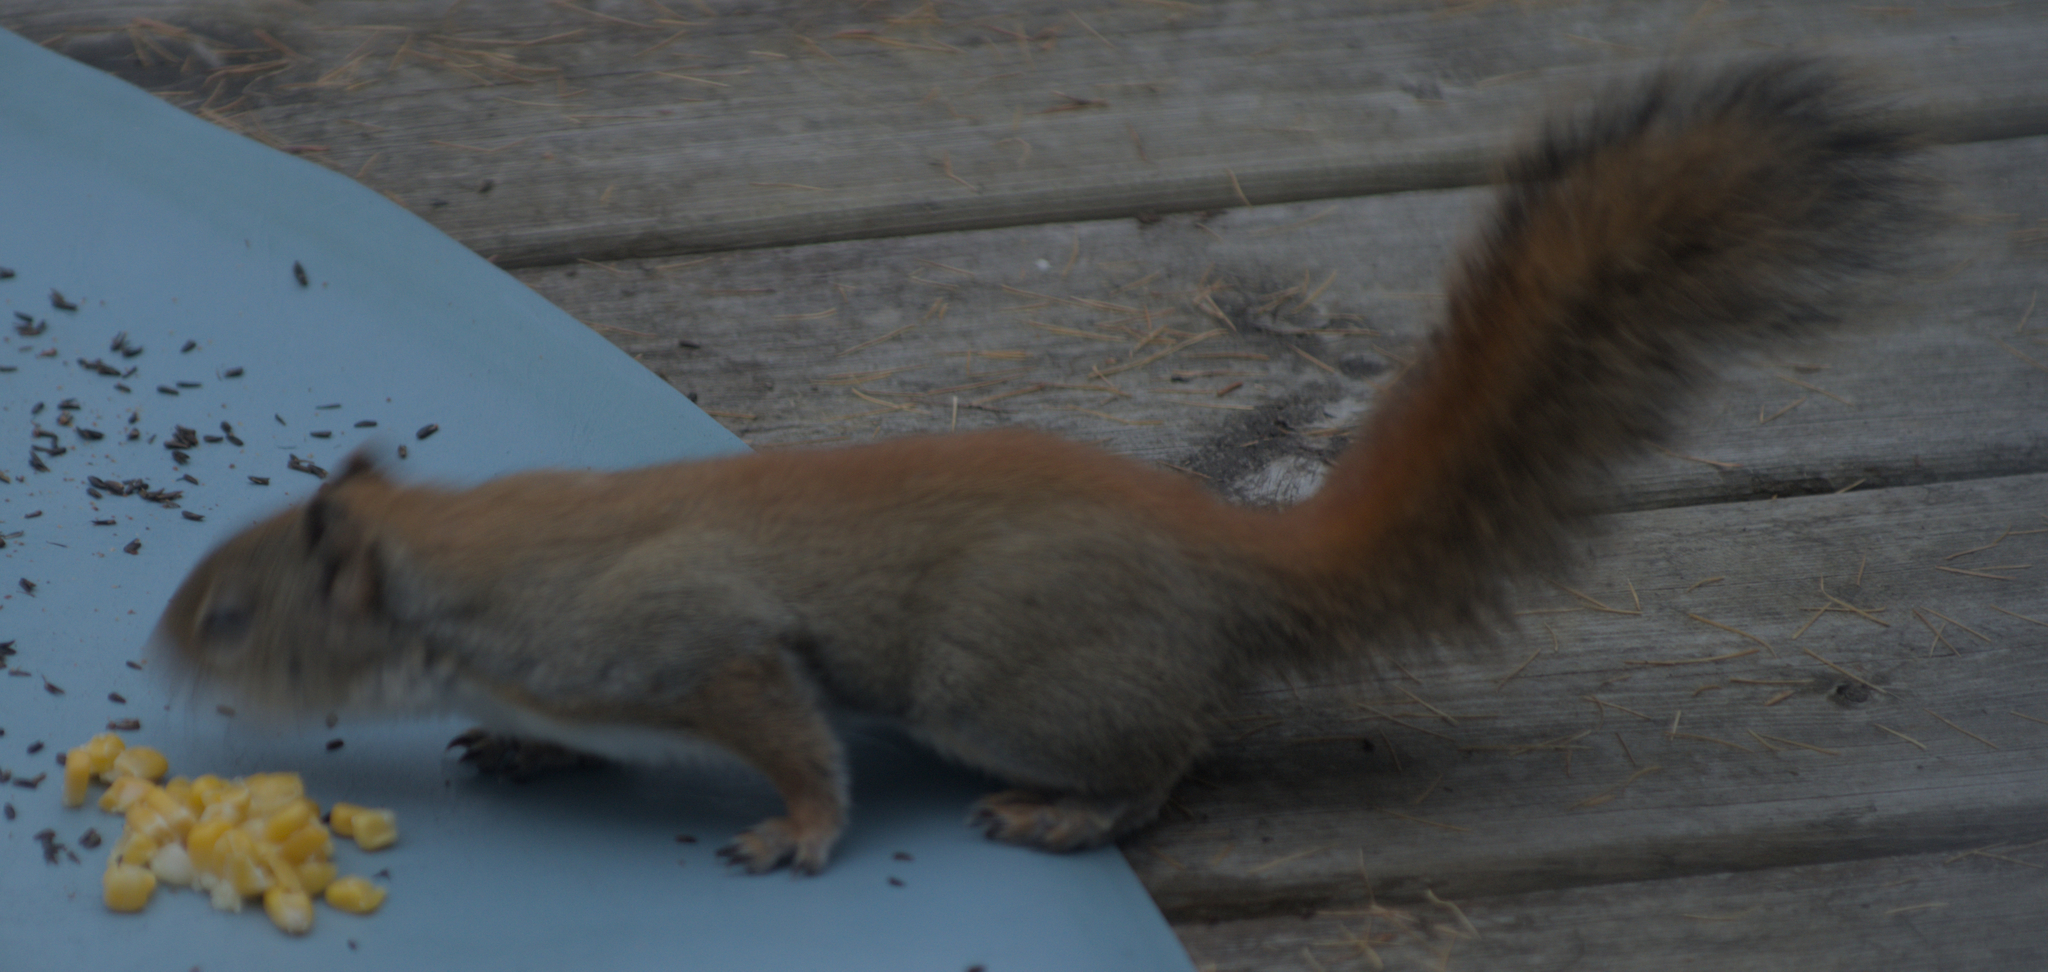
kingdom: Animalia
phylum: Chordata
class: Mammalia
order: Rodentia
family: Sciuridae
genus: Tamiasciurus
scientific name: Tamiasciurus hudsonicus
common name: Red squirrel
